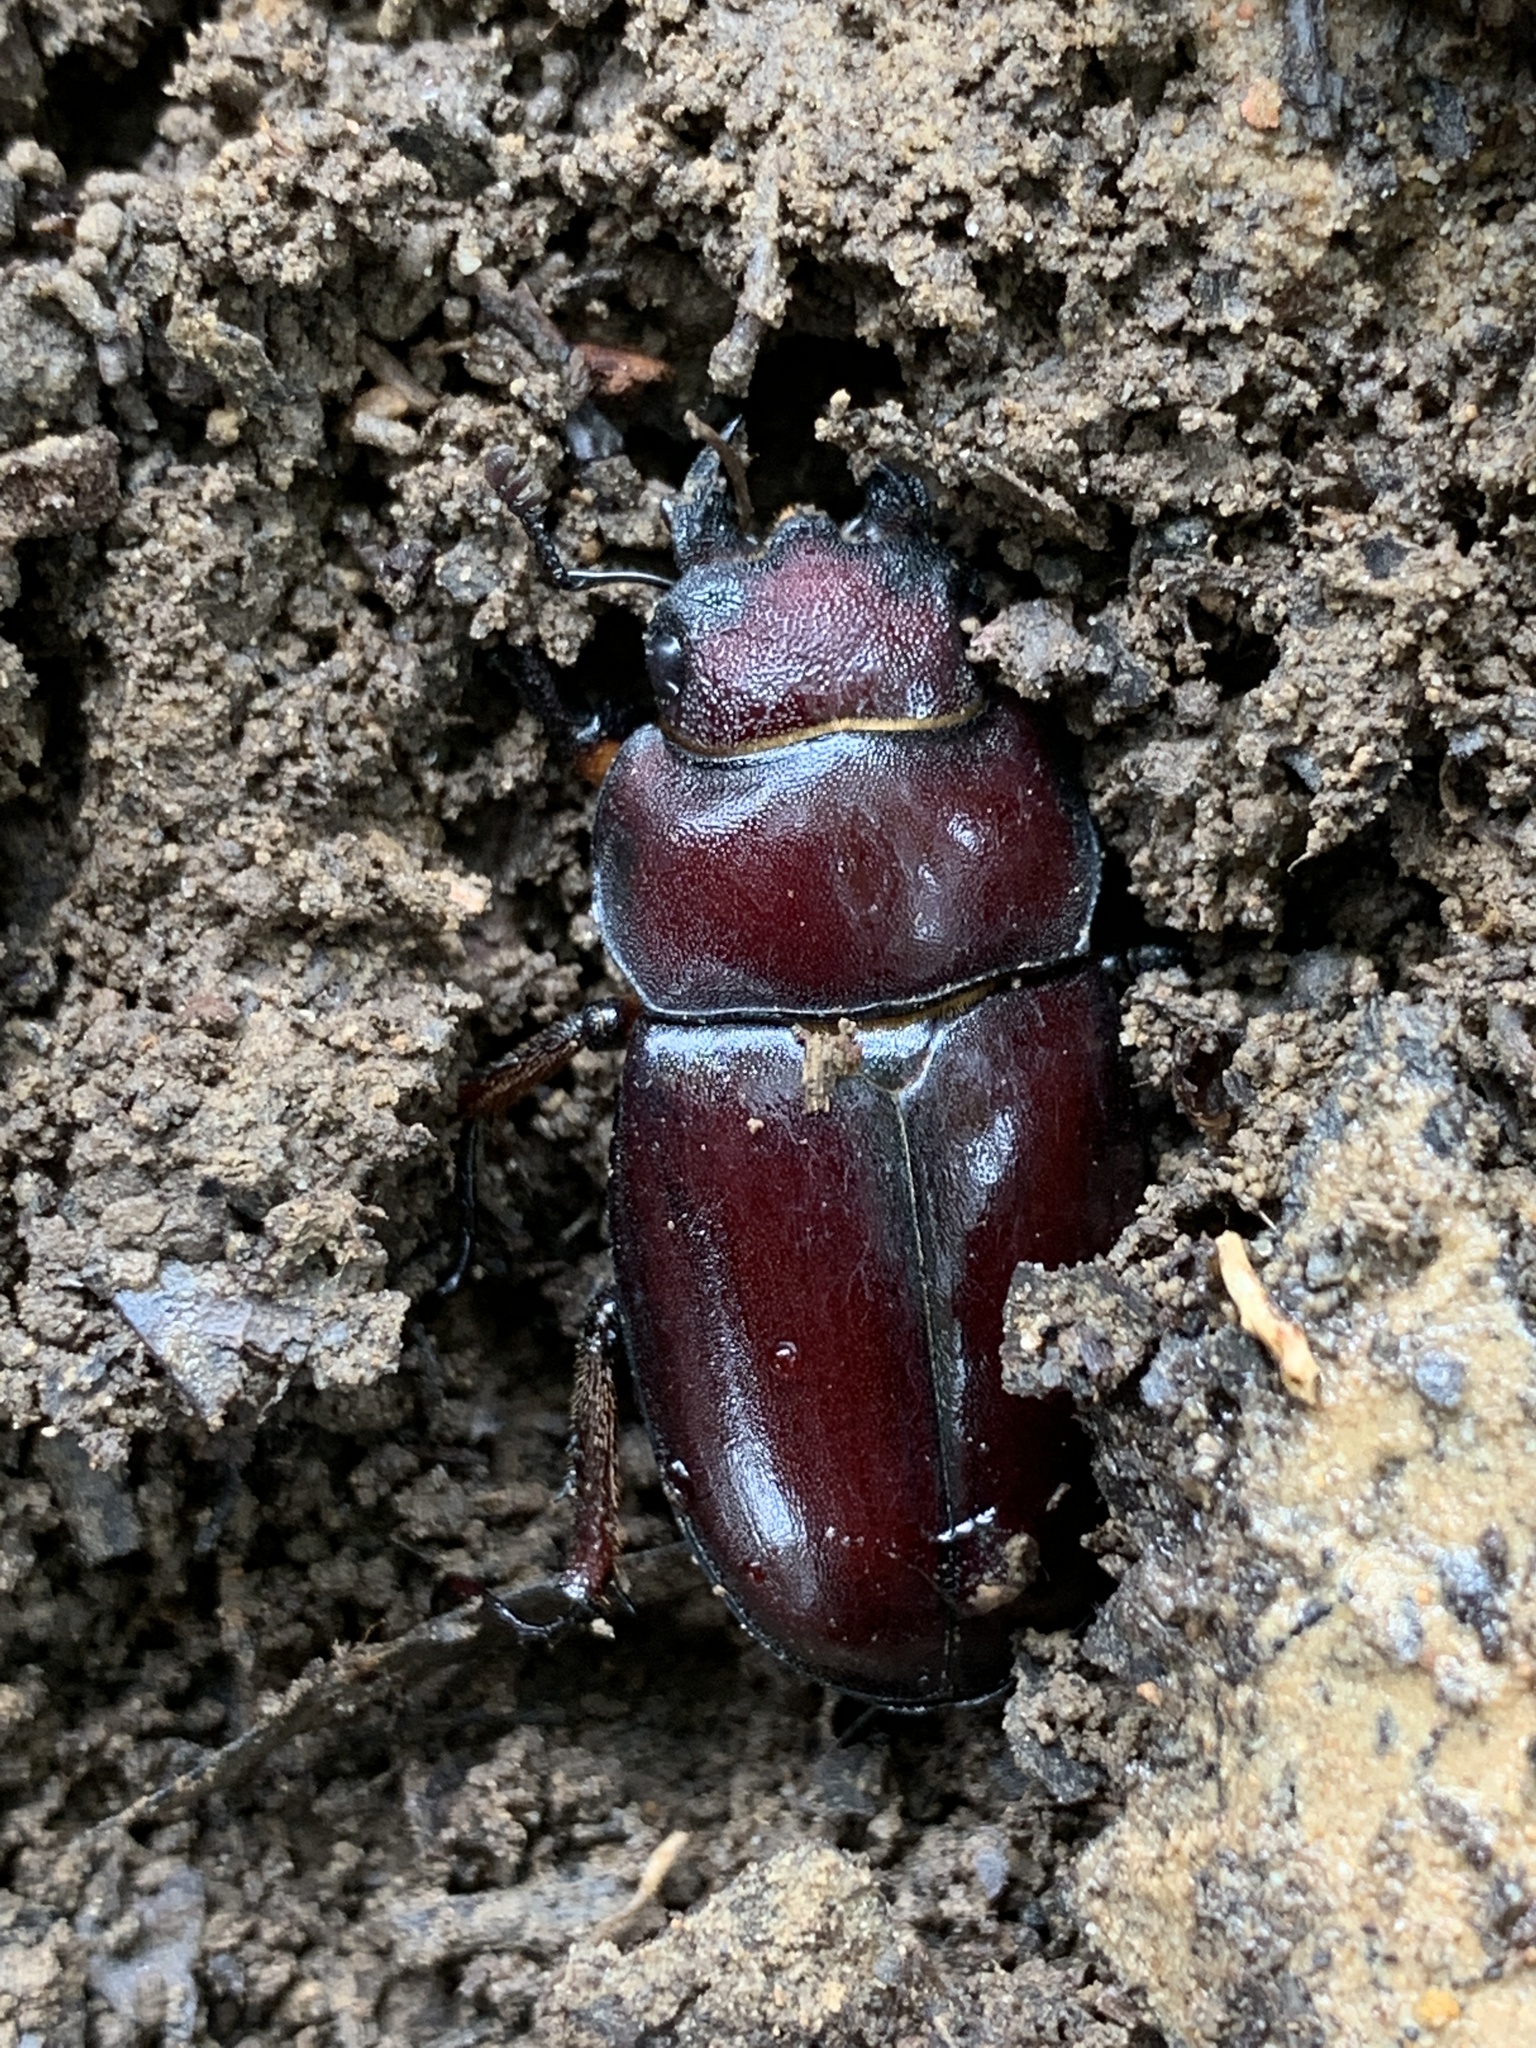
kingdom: Animalia
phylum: Arthropoda
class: Insecta
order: Coleoptera
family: Lucanidae
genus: Lucanus
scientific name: Lucanus capreolus
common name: Stag beetle
